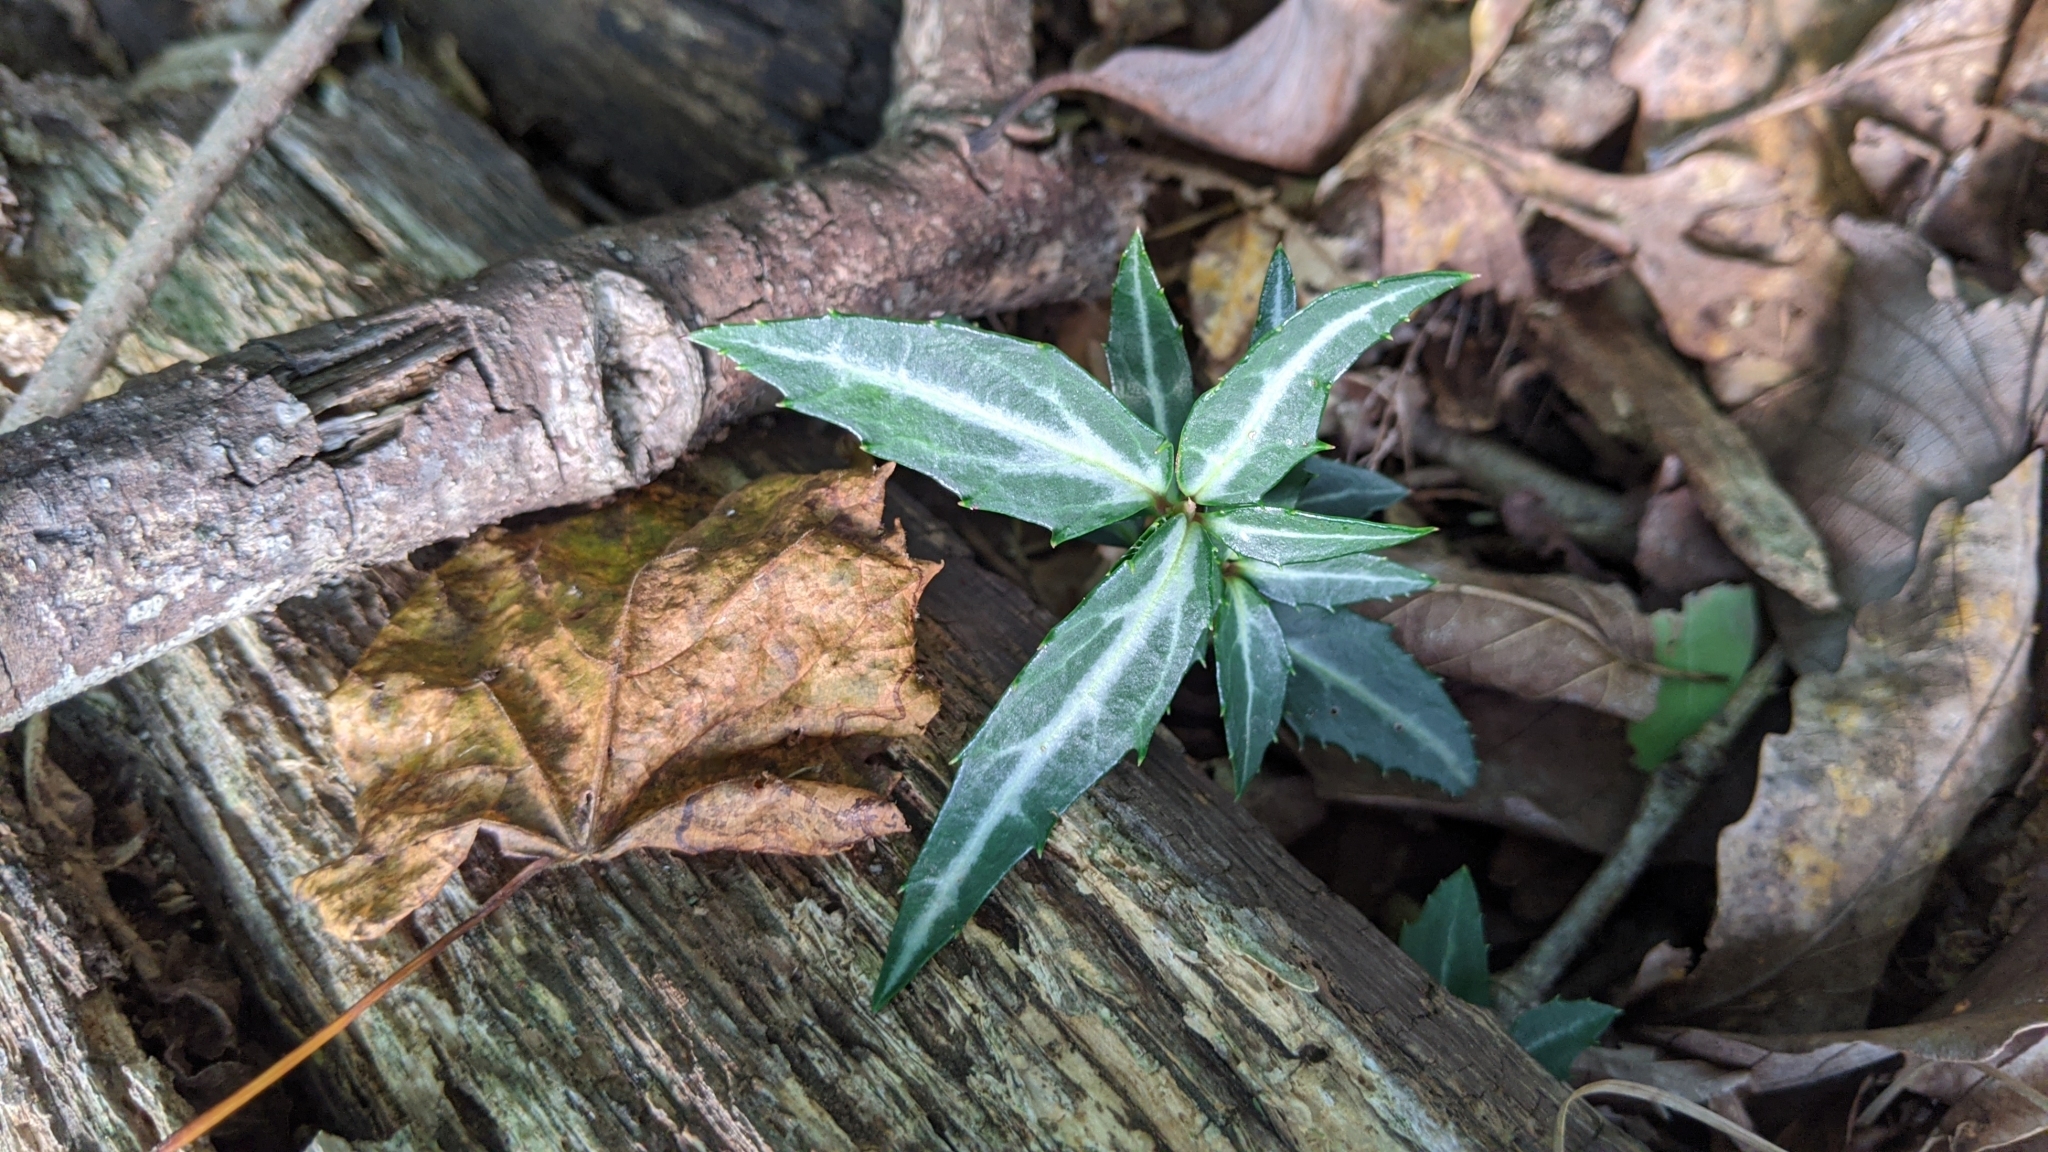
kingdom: Plantae
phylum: Tracheophyta
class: Magnoliopsida
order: Ericales
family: Ericaceae
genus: Chimaphila
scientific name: Chimaphila maculata
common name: Spotted pipsissewa
